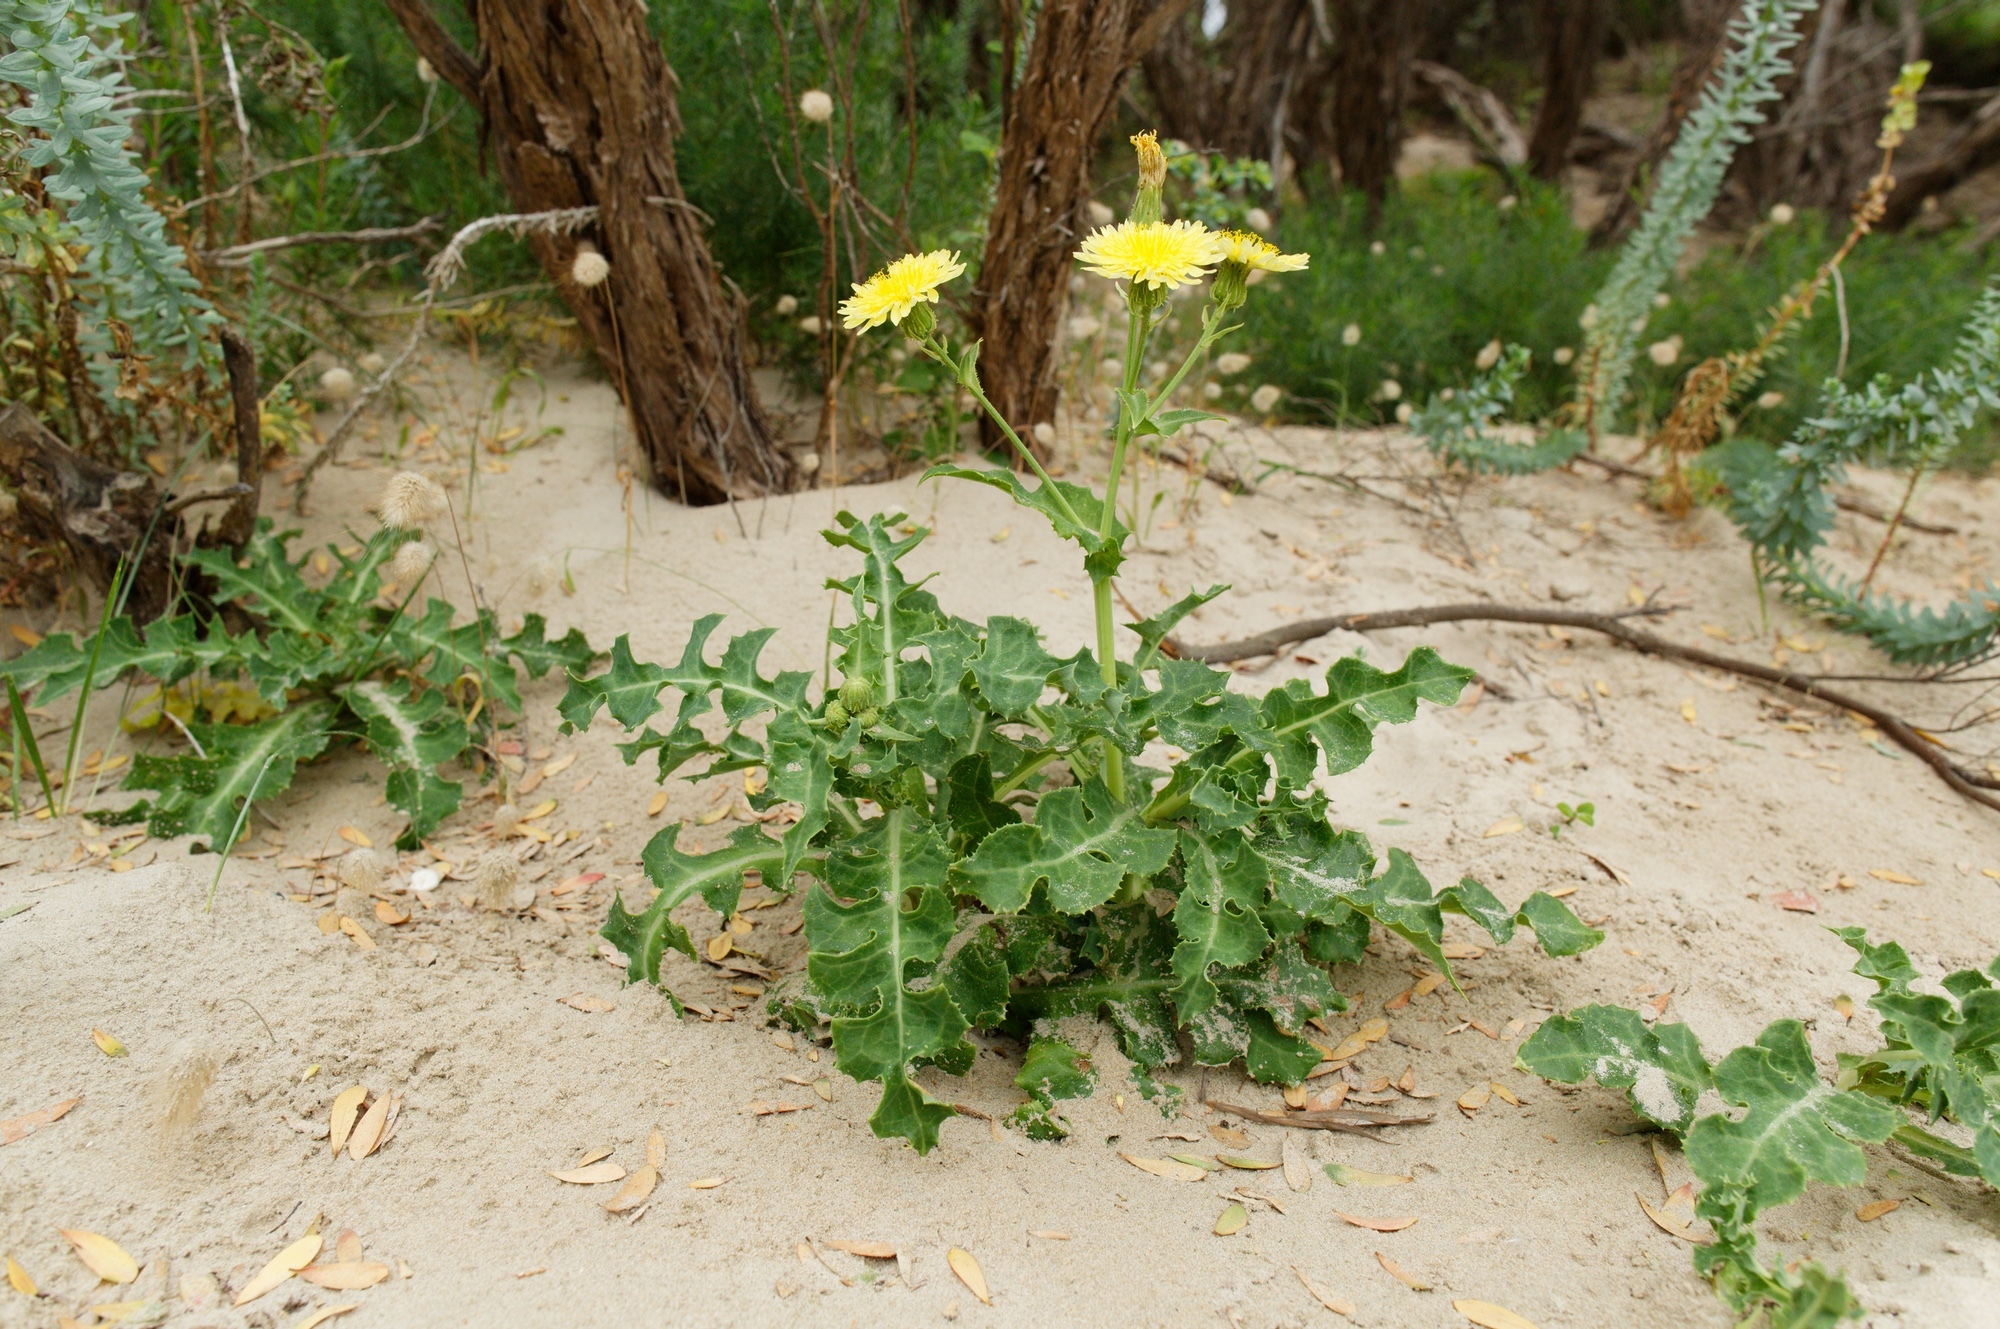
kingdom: Plantae
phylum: Tracheophyta
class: Magnoliopsida
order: Asterales
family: Asteraceae
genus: Sonchus
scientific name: Sonchus megalocarpus
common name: Dune thistle
